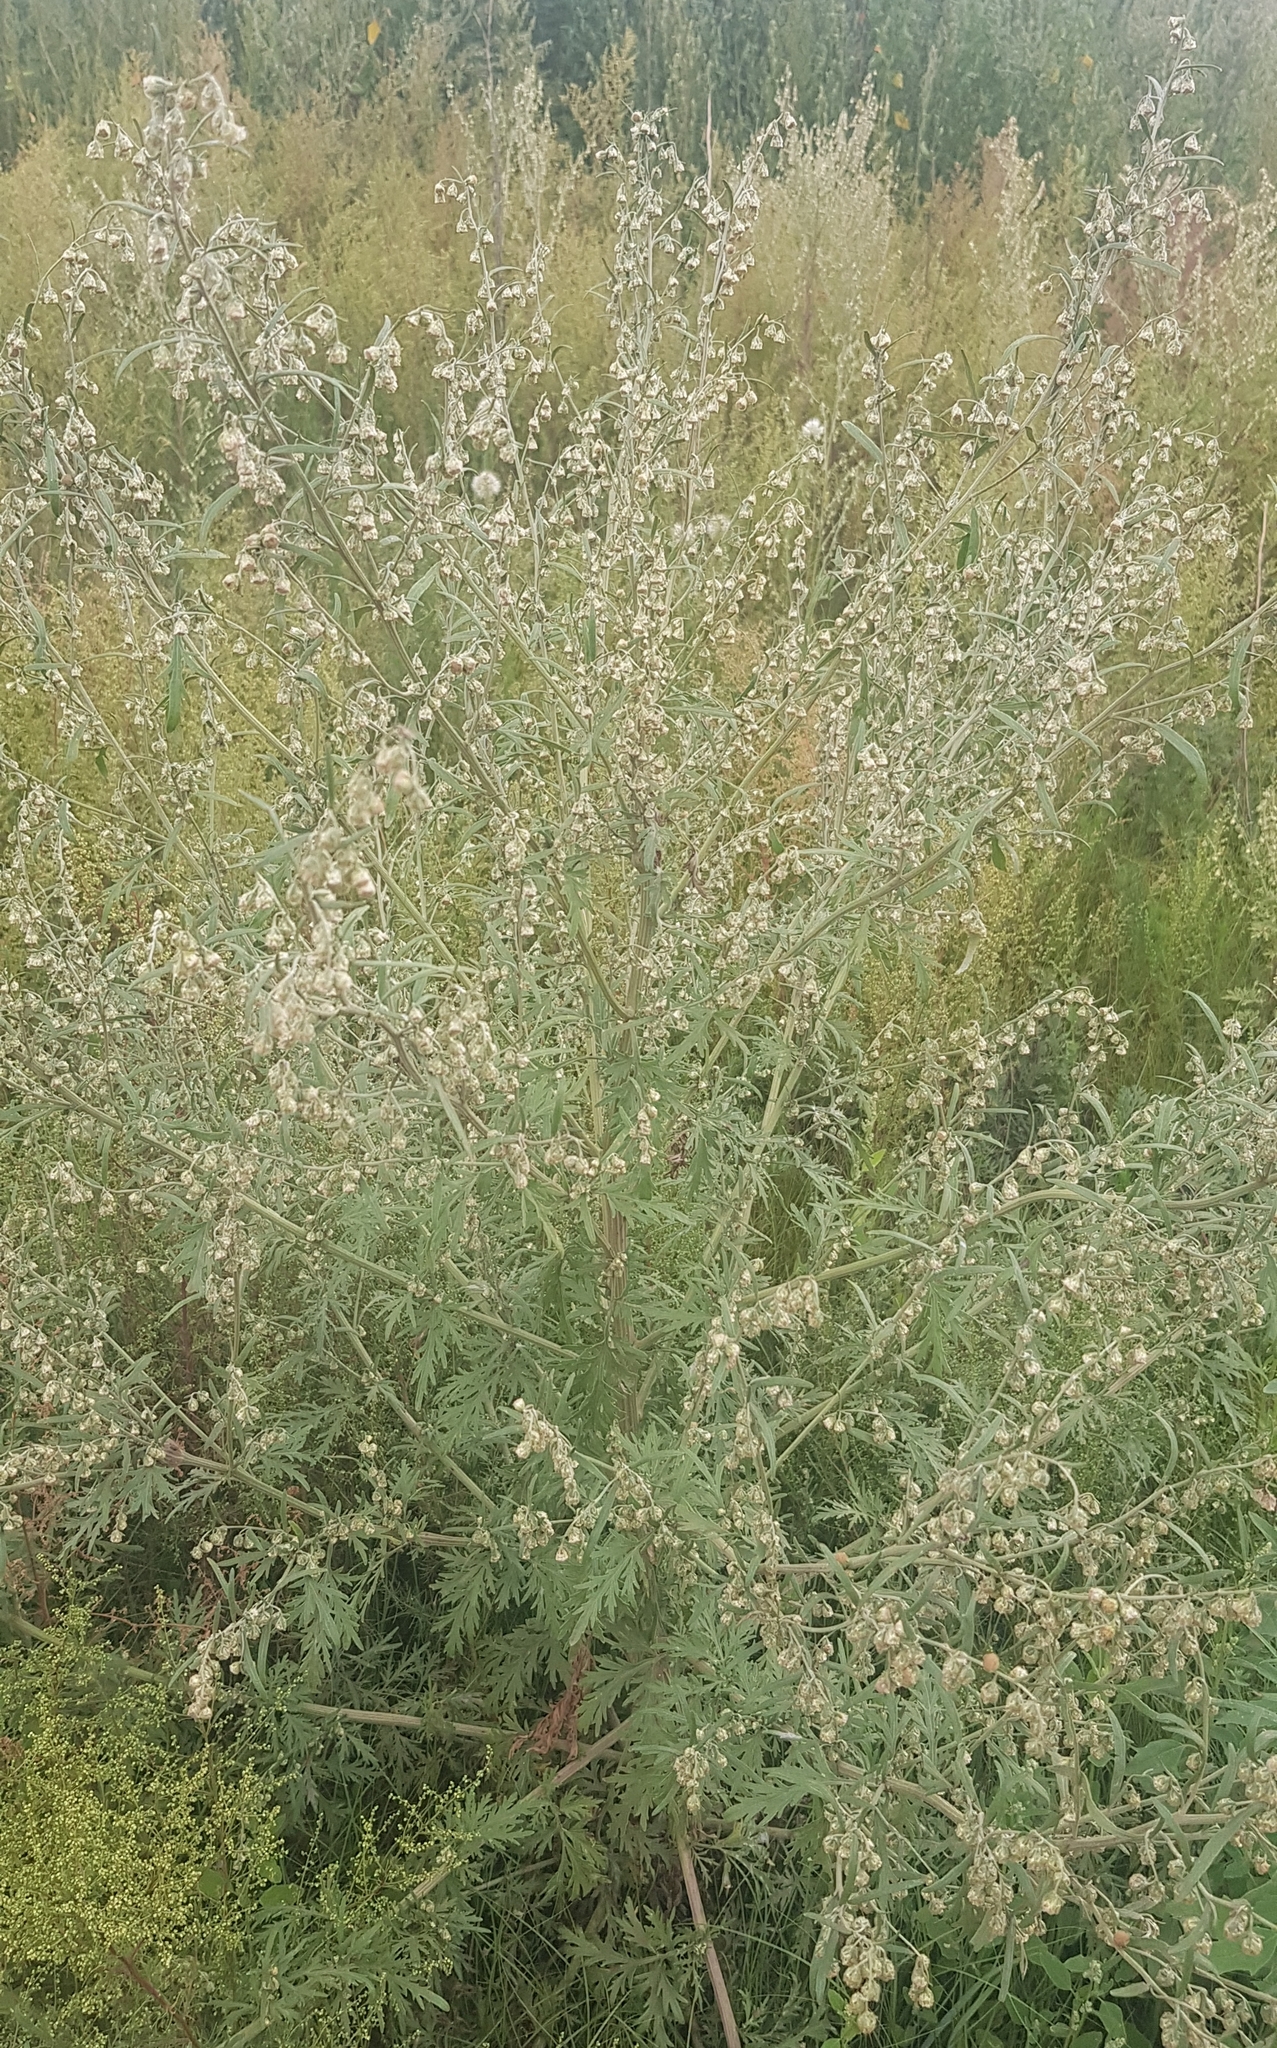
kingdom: Plantae
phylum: Tracheophyta
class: Magnoliopsida
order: Asterales
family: Asteraceae
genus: Artemisia
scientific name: Artemisia sieversiana
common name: Sieversian wormwood
